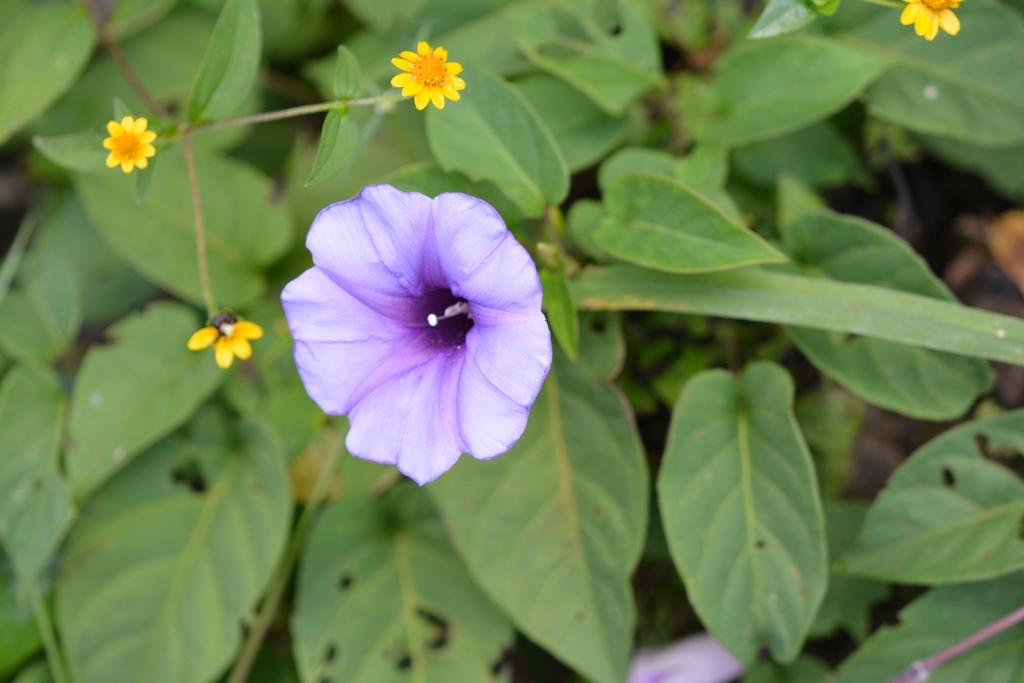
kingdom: Plantae
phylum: Tracheophyta
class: Magnoliopsida
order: Solanales
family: Convolvulaceae
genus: Ipomoea
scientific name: Ipomoea lindenii
